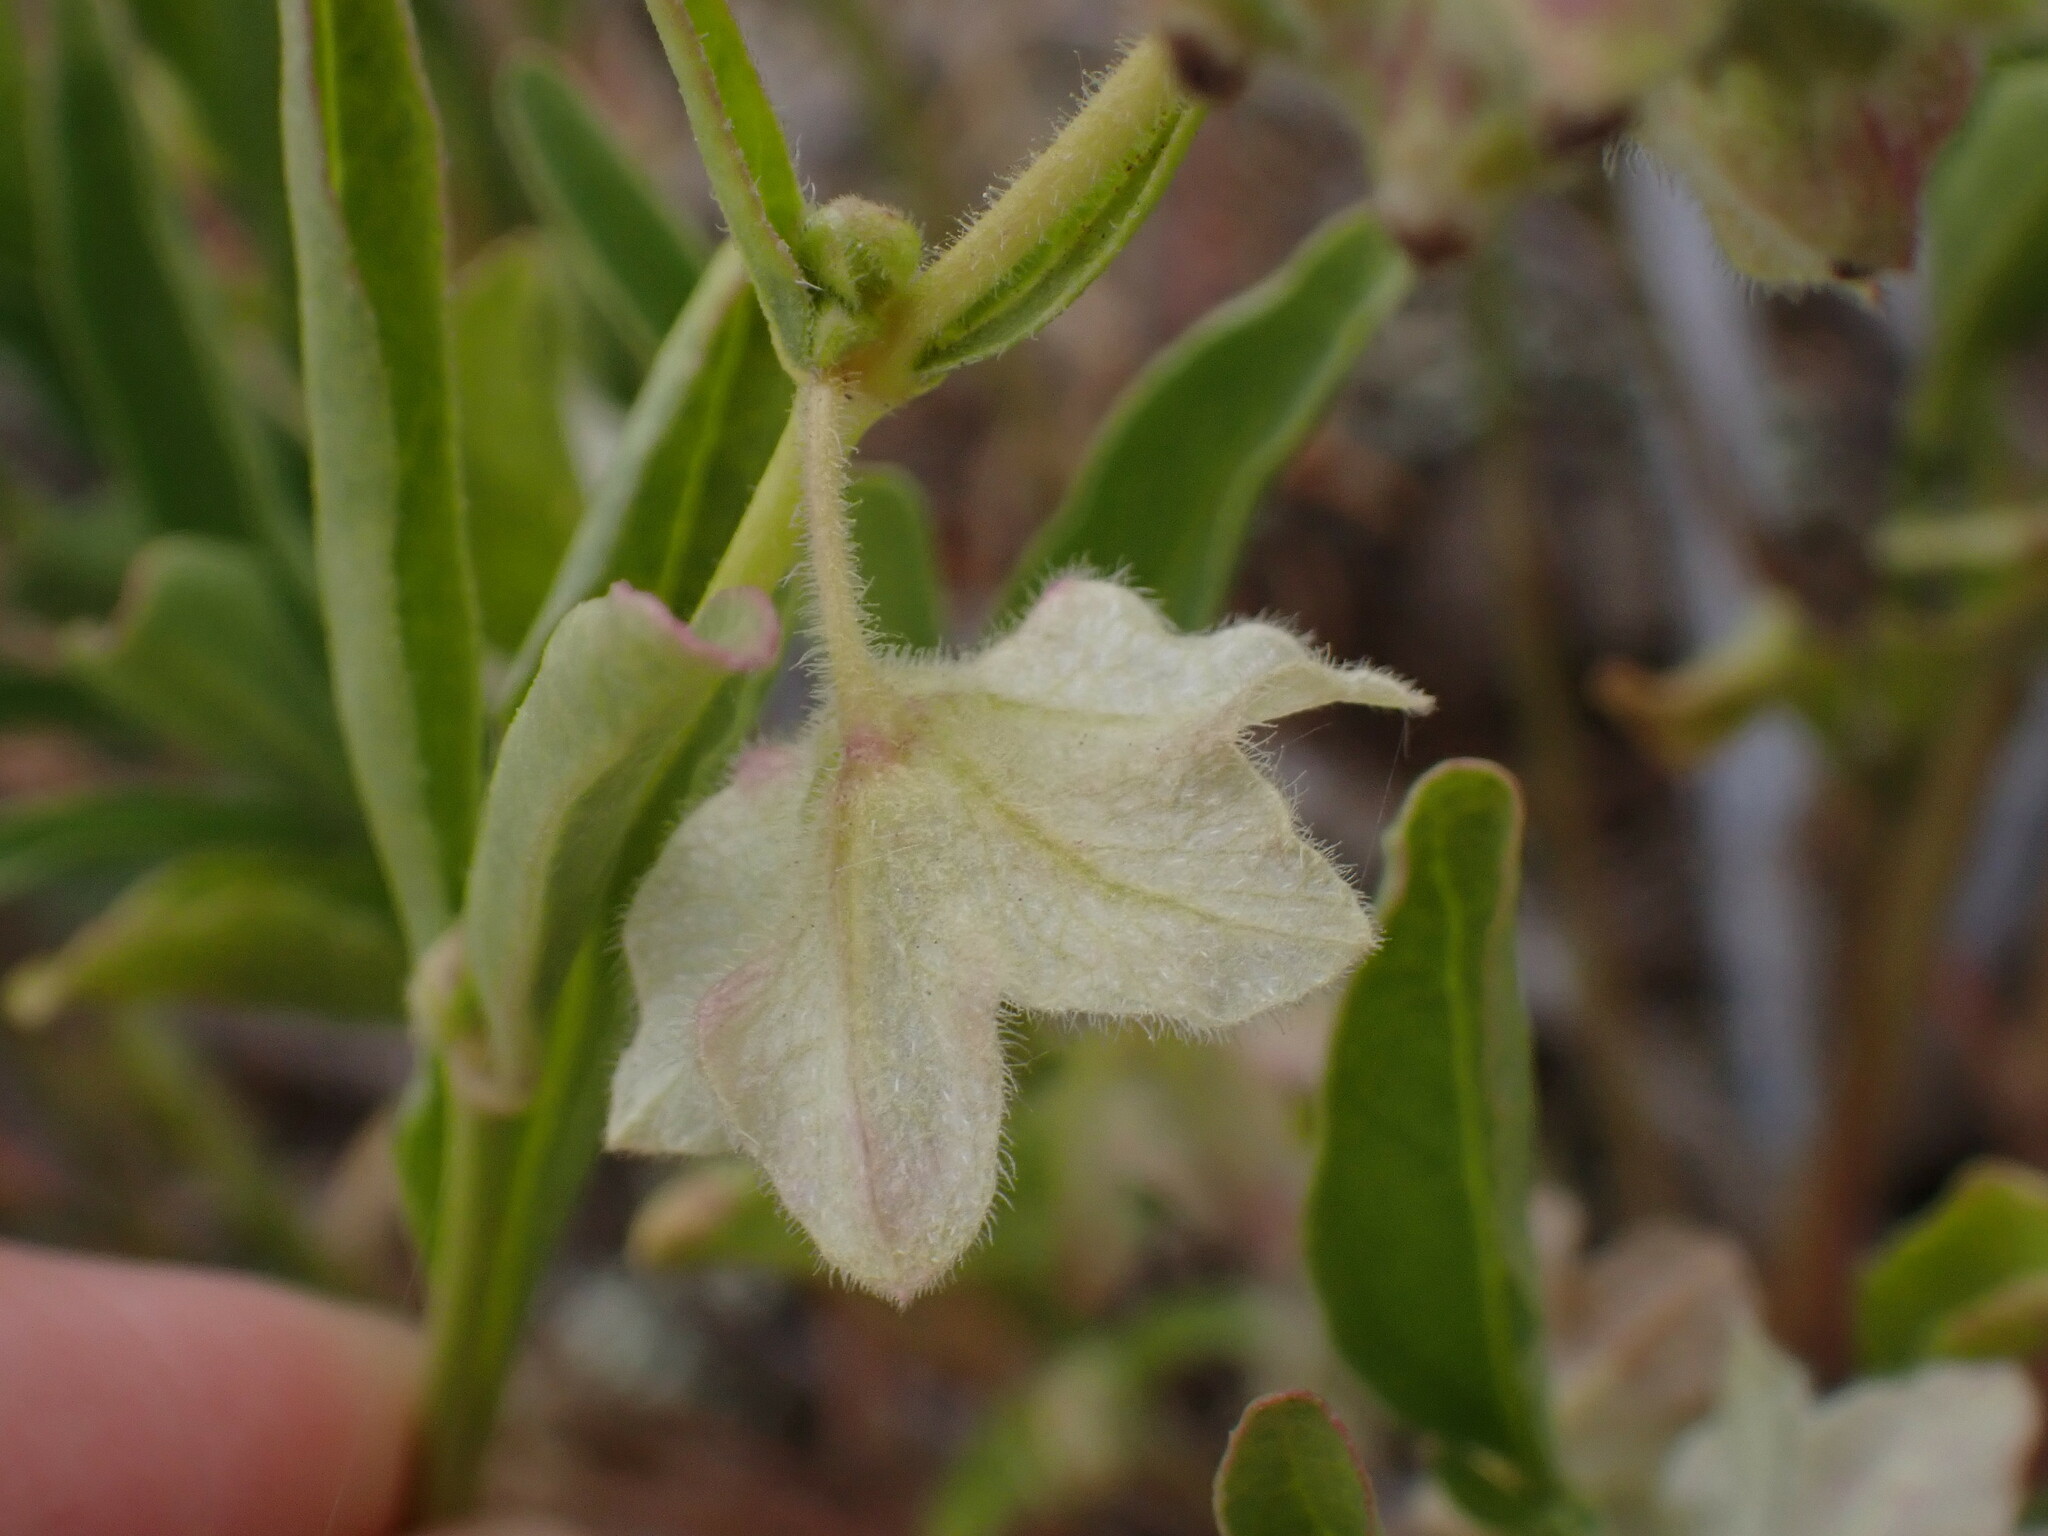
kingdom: Plantae
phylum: Tracheophyta
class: Magnoliopsida
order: Caryophyllales
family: Nyctaginaceae
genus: Mirabilis
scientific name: Mirabilis albida
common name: Hairy four-o'clock
